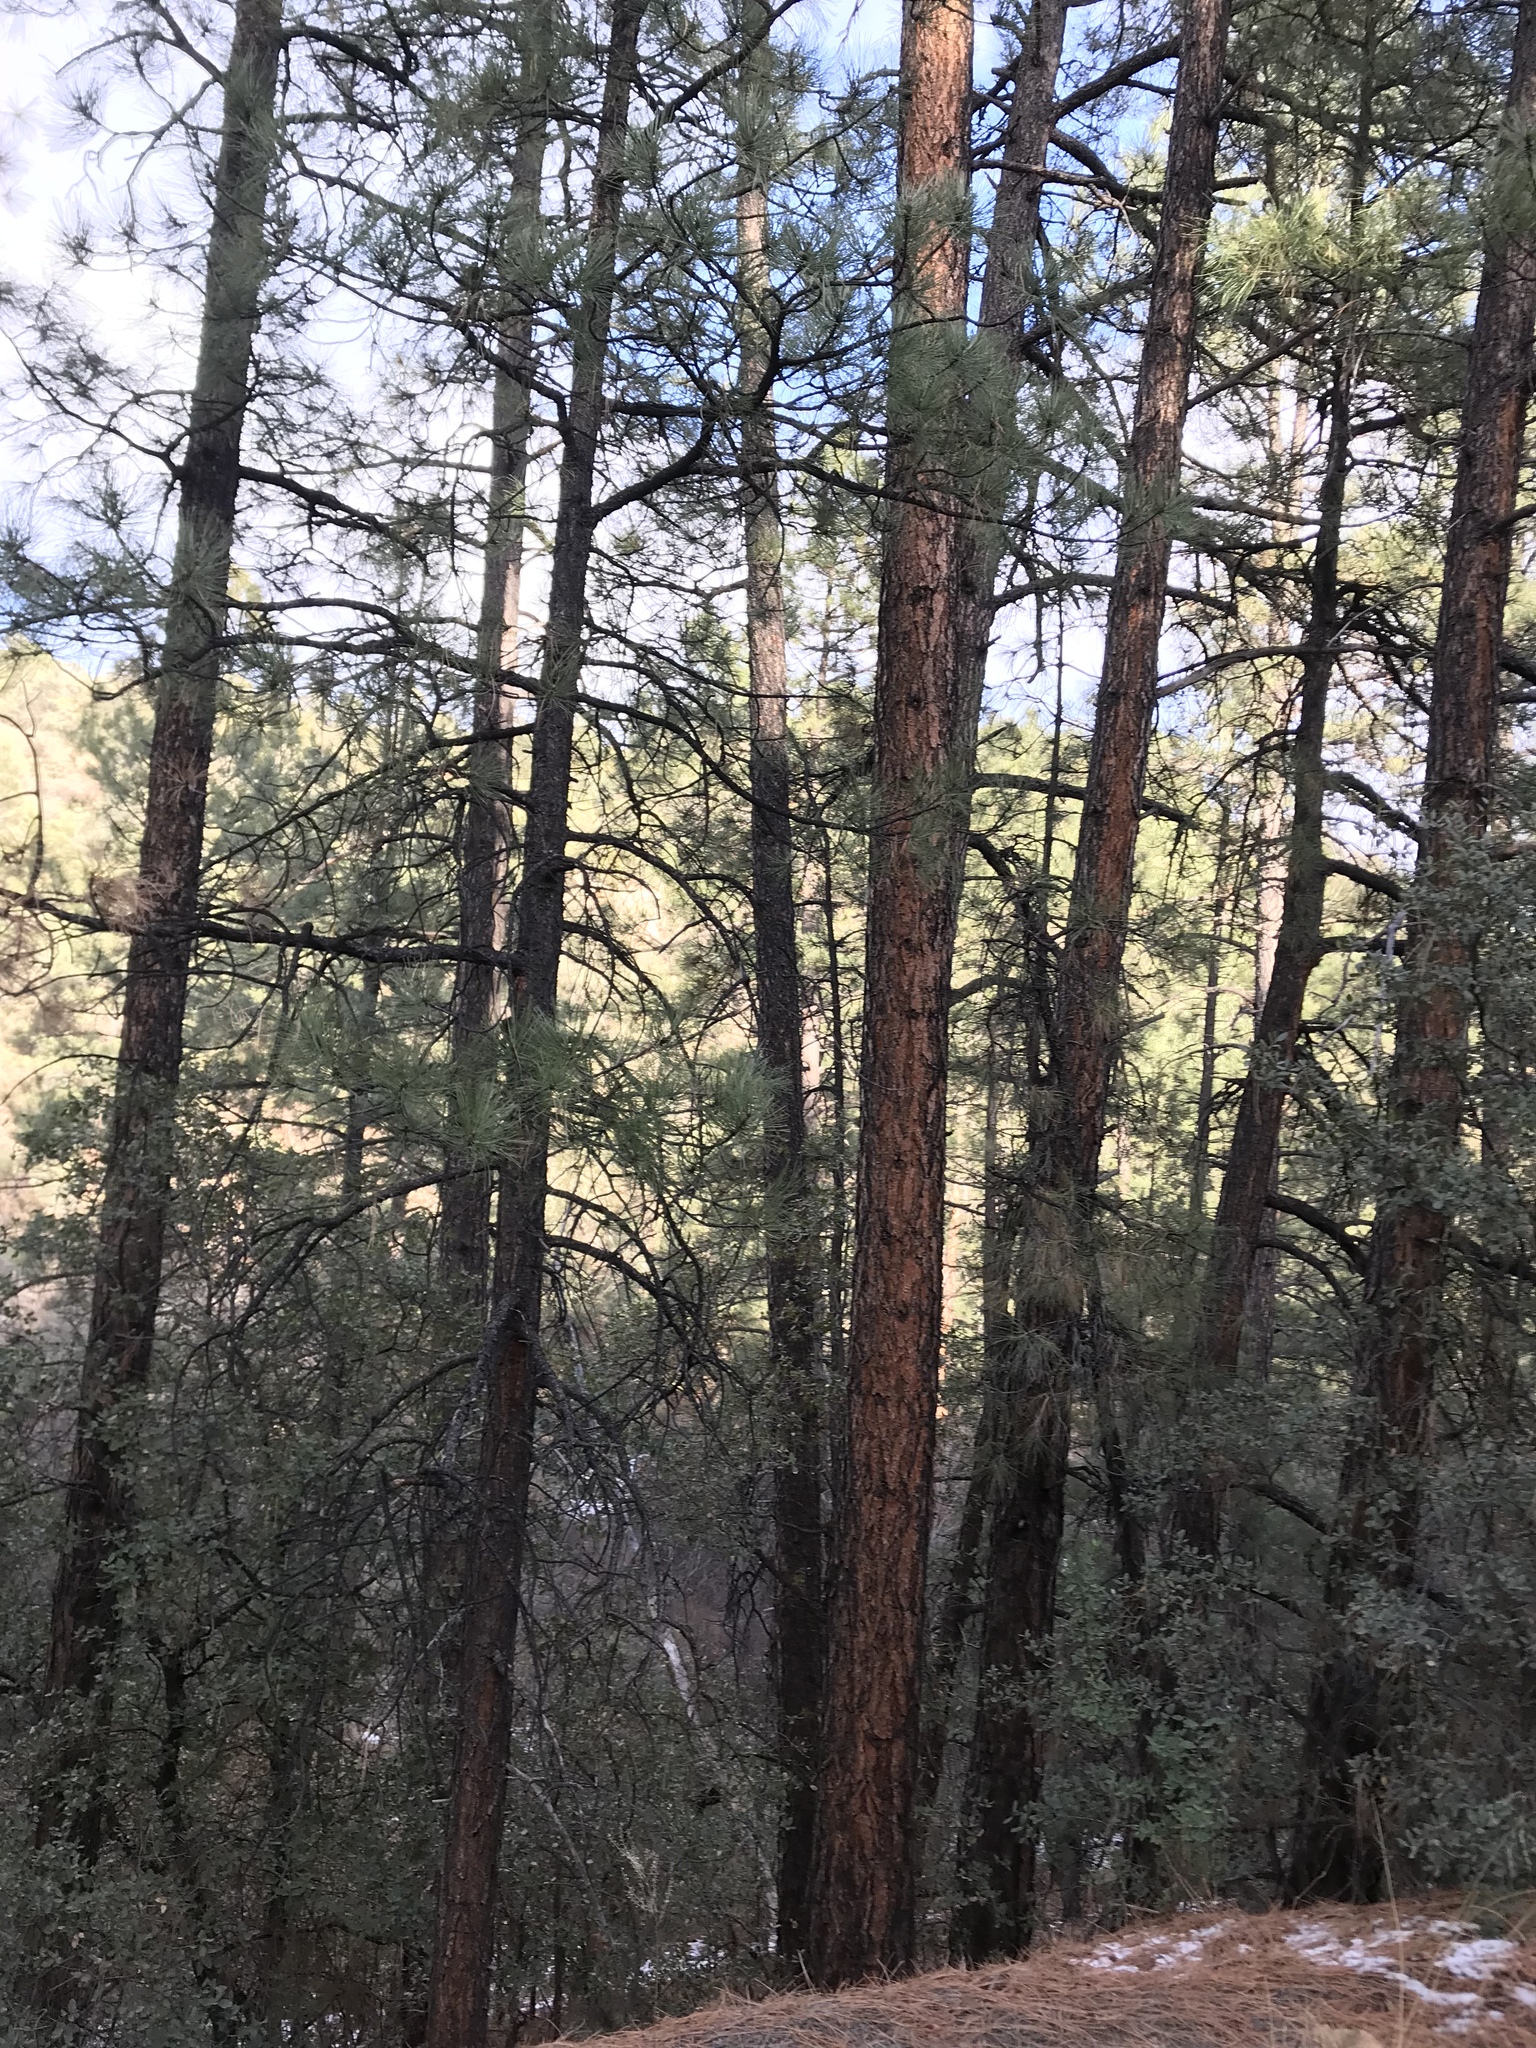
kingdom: Plantae
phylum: Tracheophyta
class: Pinopsida
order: Pinales
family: Pinaceae
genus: Pinus
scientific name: Pinus ponderosa
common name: Western yellow-pine
